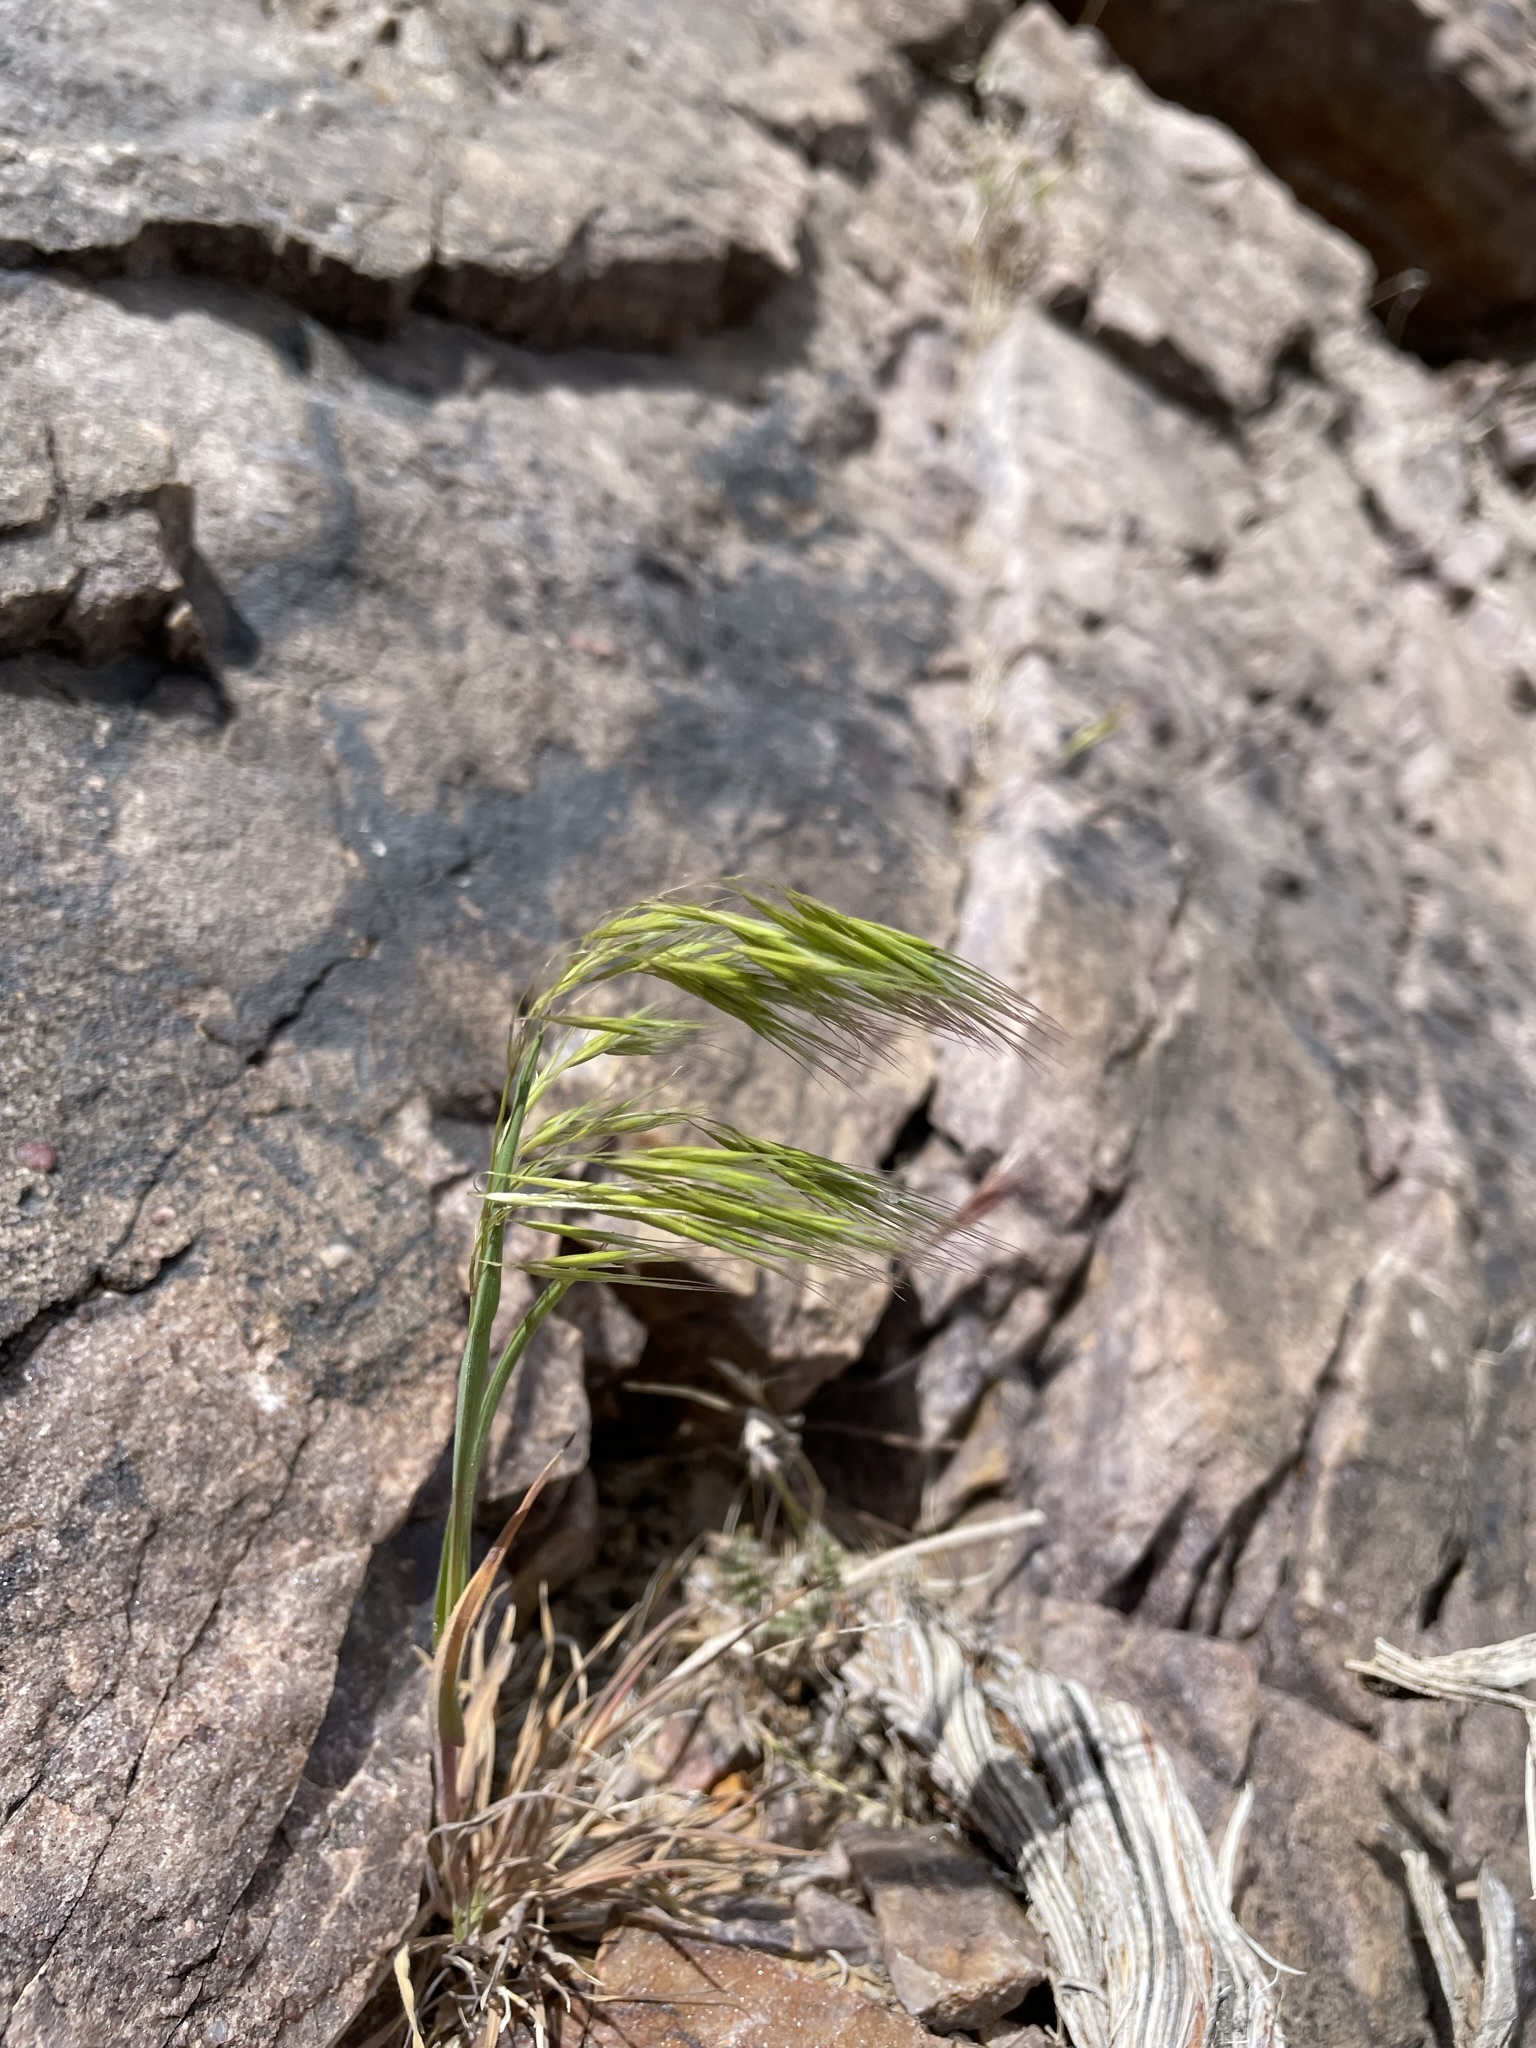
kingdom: Plantae
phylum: Tracheophyta
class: Liliopsida
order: Poales
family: Poaceae
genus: Bromus
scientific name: Bromus tectorum
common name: Cheatgrass
